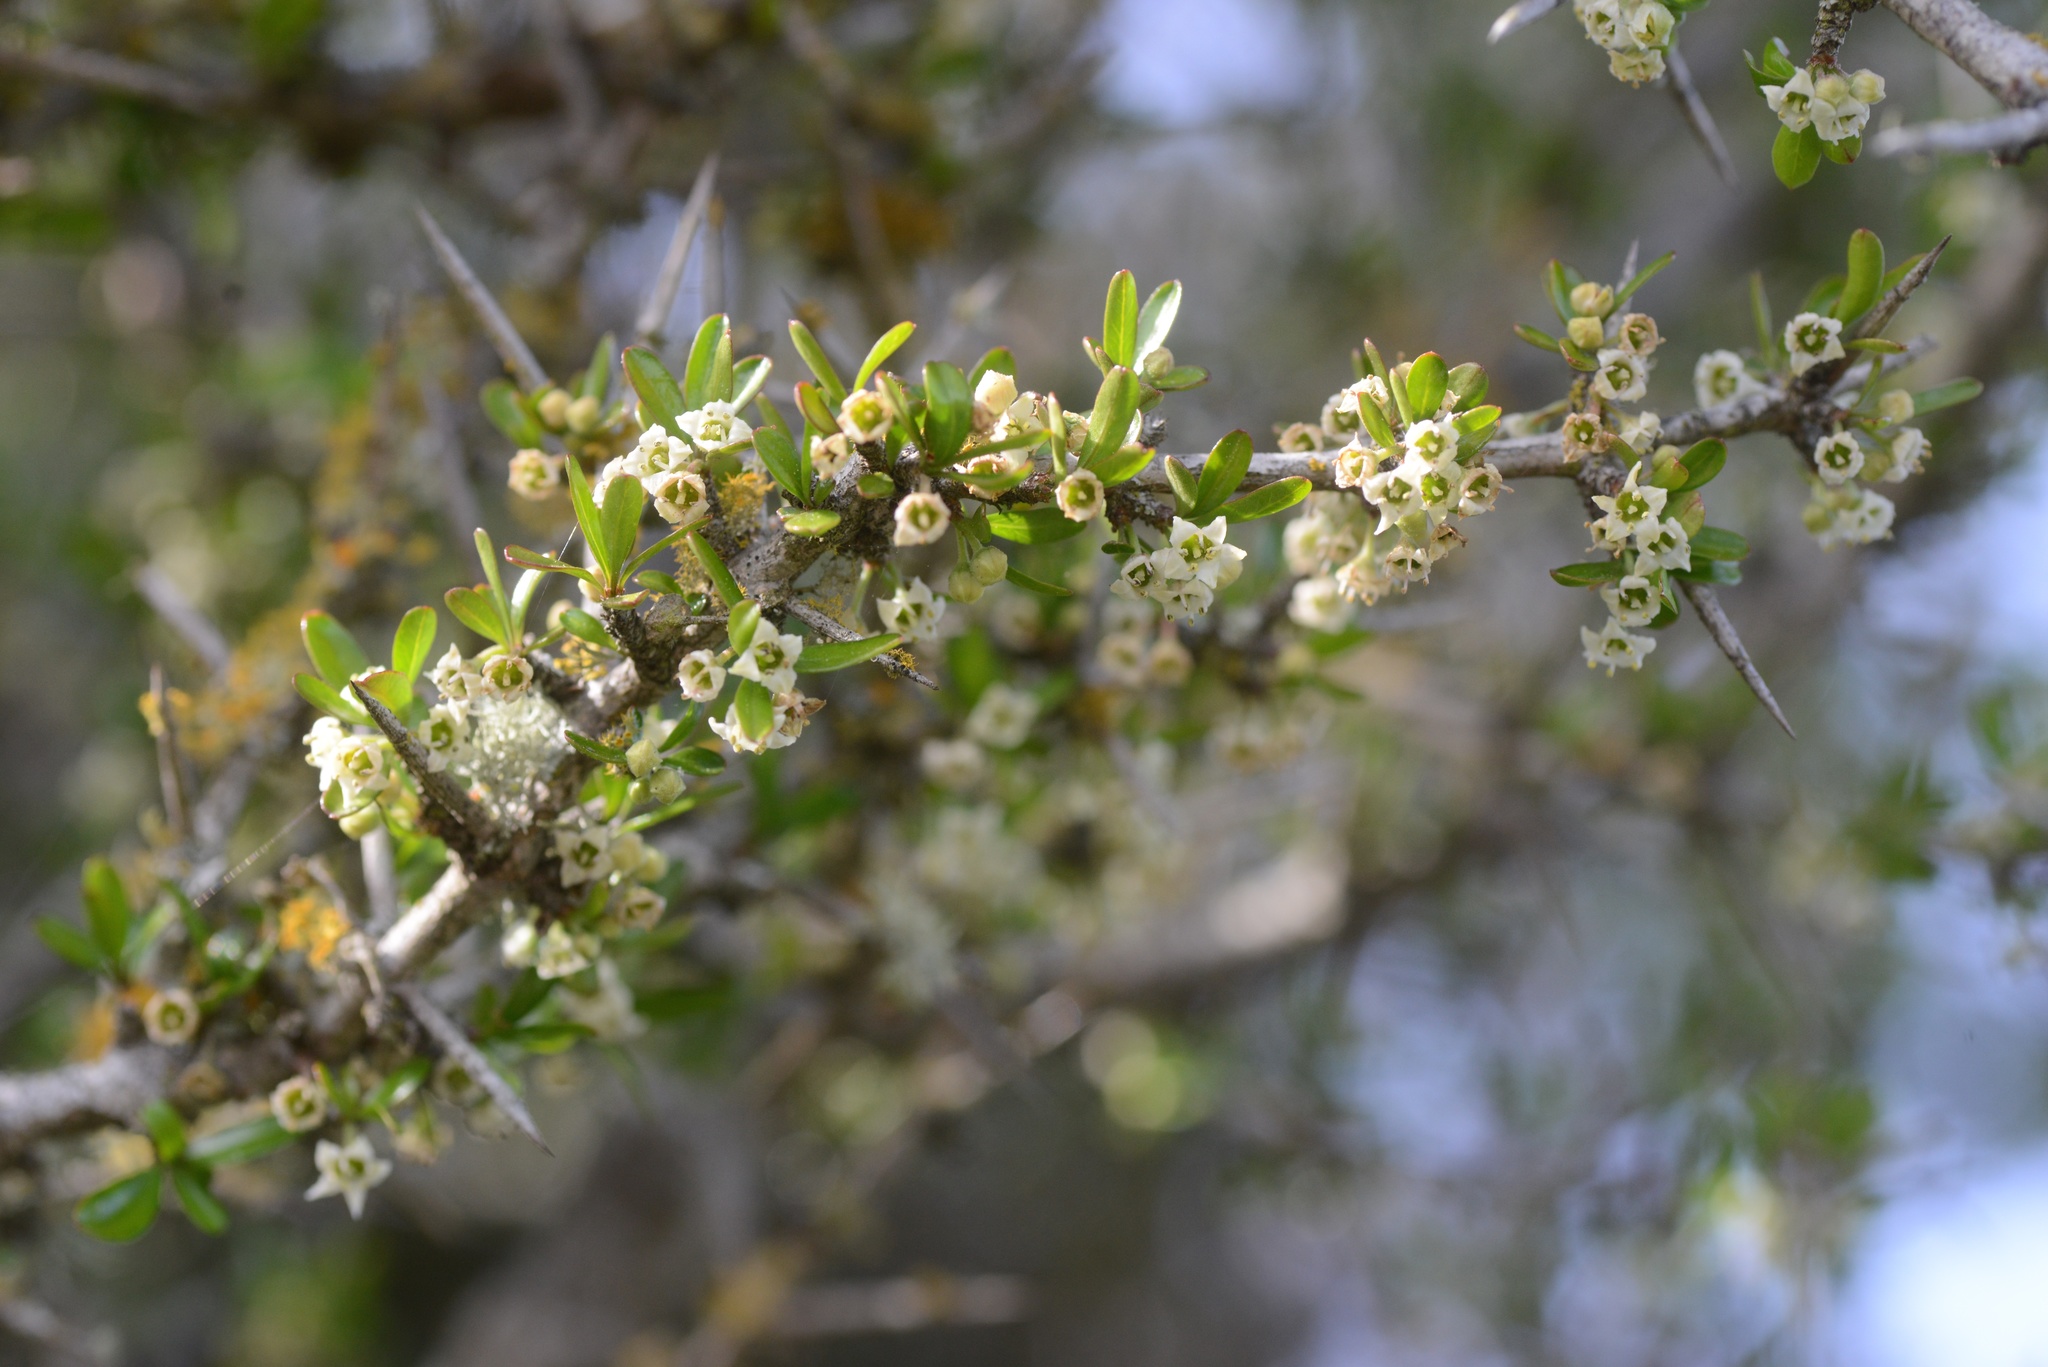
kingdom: Plantae
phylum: Tracheophyta
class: Magnoliopsida
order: Rosales
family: Rhamnaceae
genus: Discaria
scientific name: Discaria toumatou
